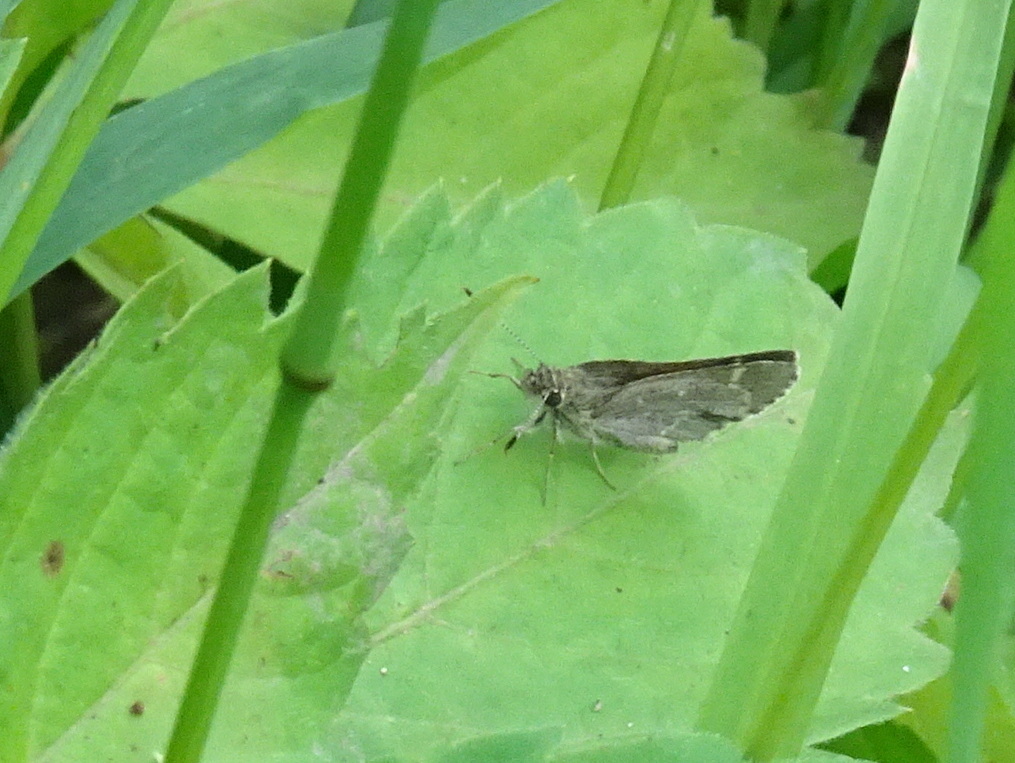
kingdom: Animalia
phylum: Arthropoda
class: Insecta
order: Lepidoptera
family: Hesperiidae
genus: Mastor
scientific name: Mastor hegon
